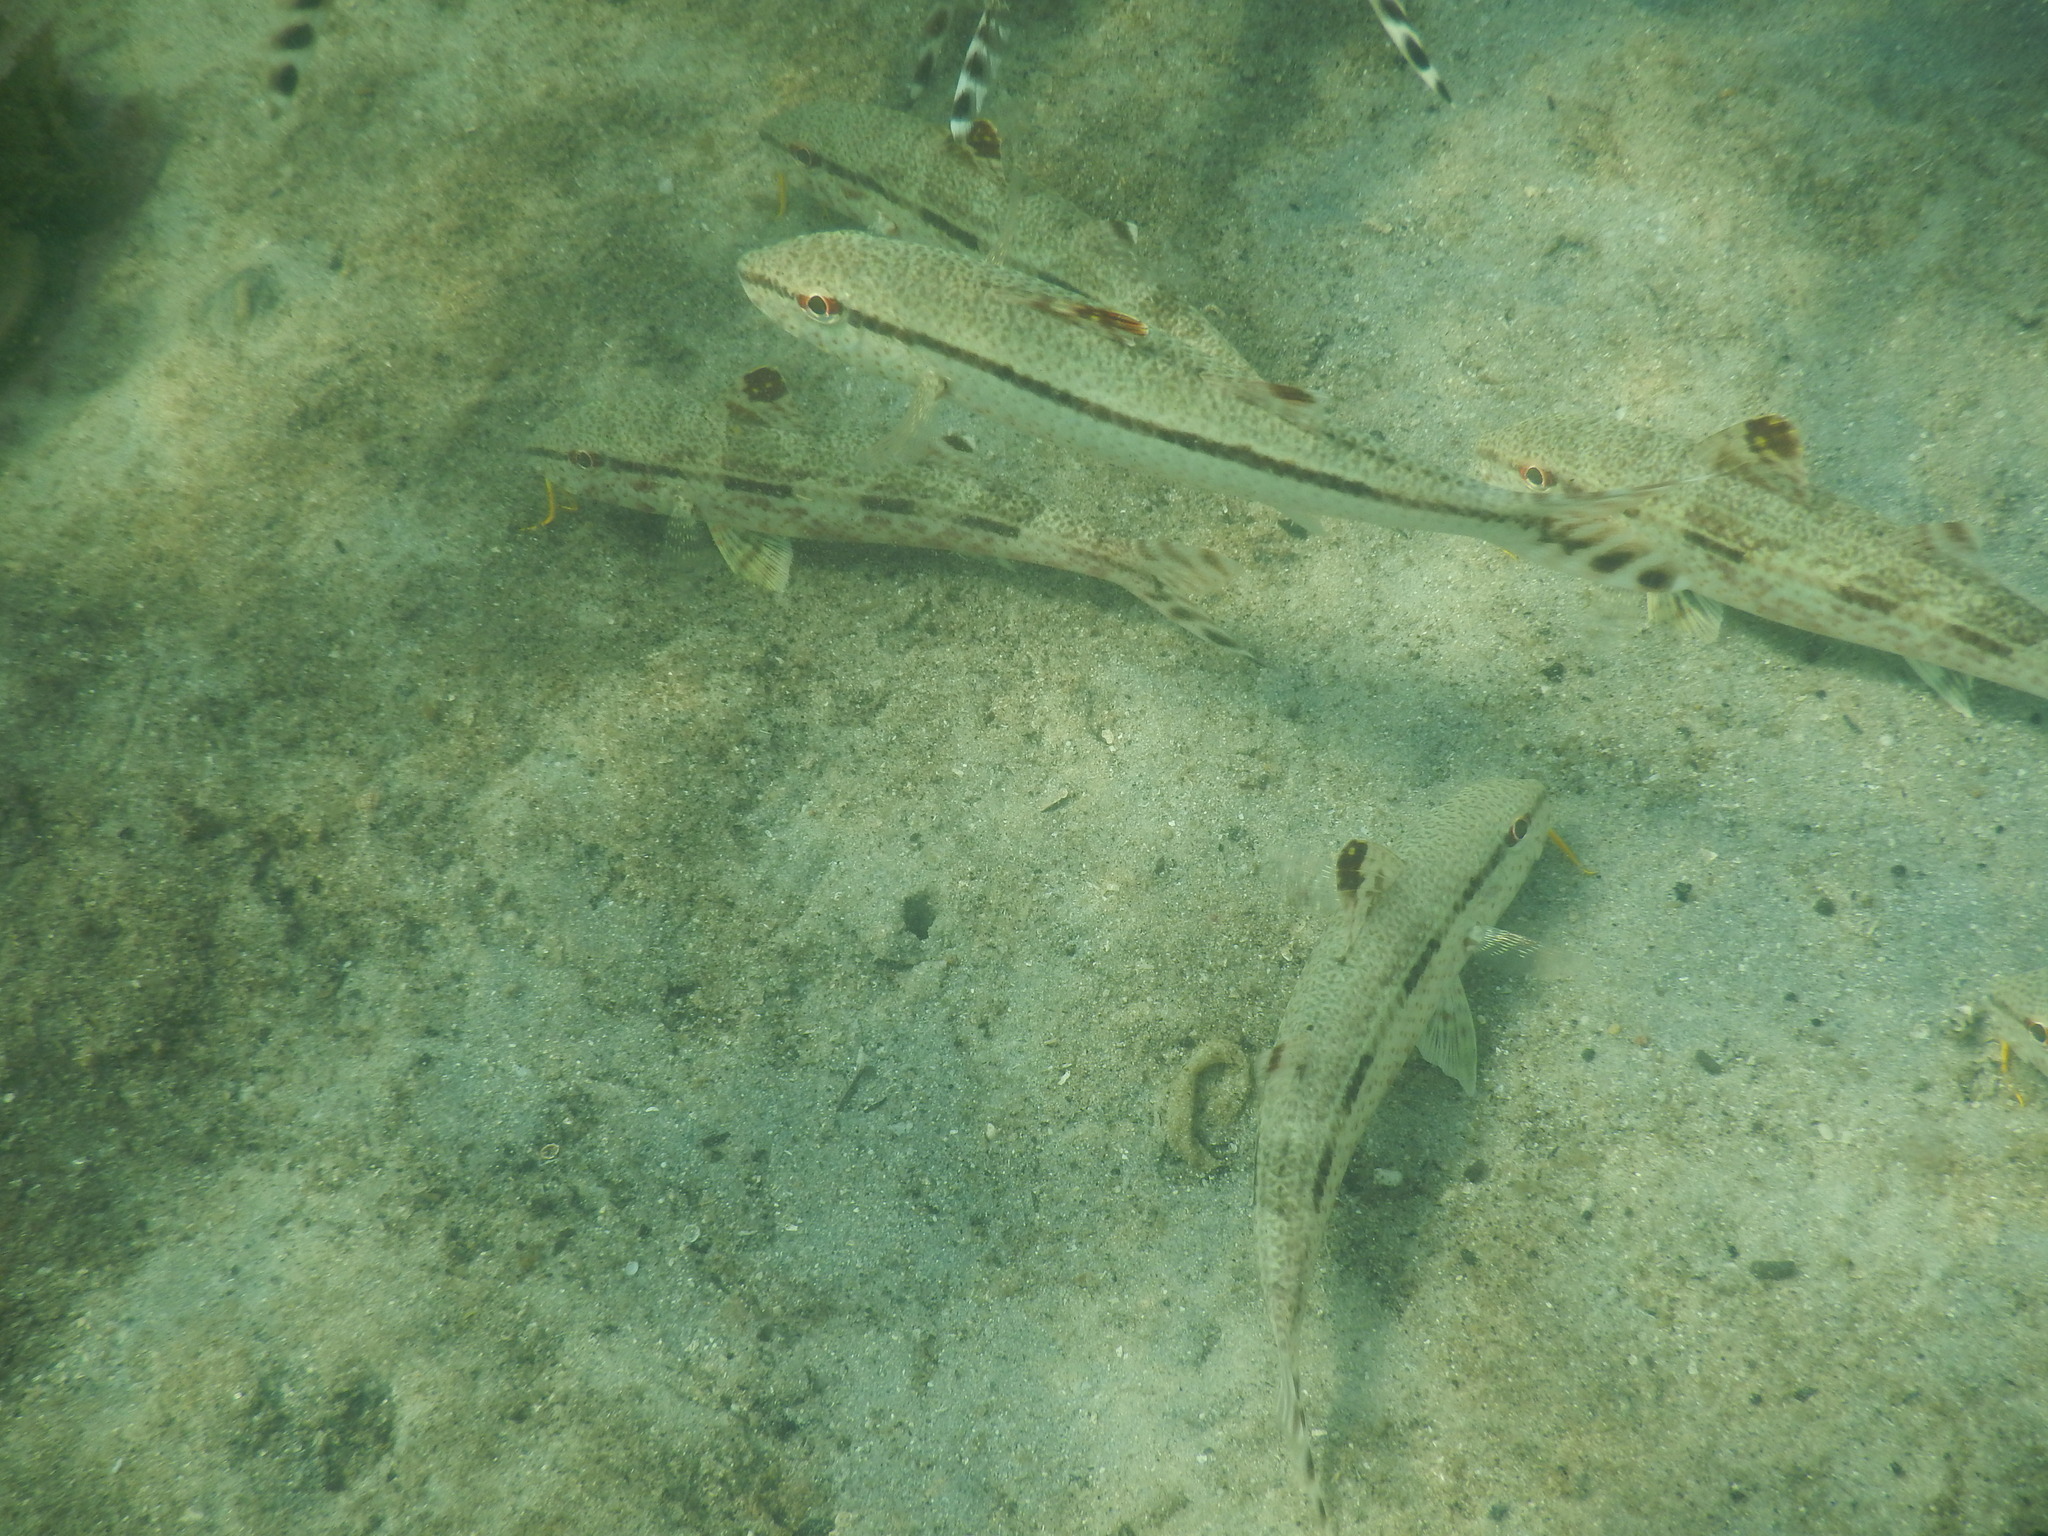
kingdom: Animalia
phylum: Chordata
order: Perciformes
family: Mullidae
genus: Upeneus
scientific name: Upeneus tragula
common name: Freckled goatfish
